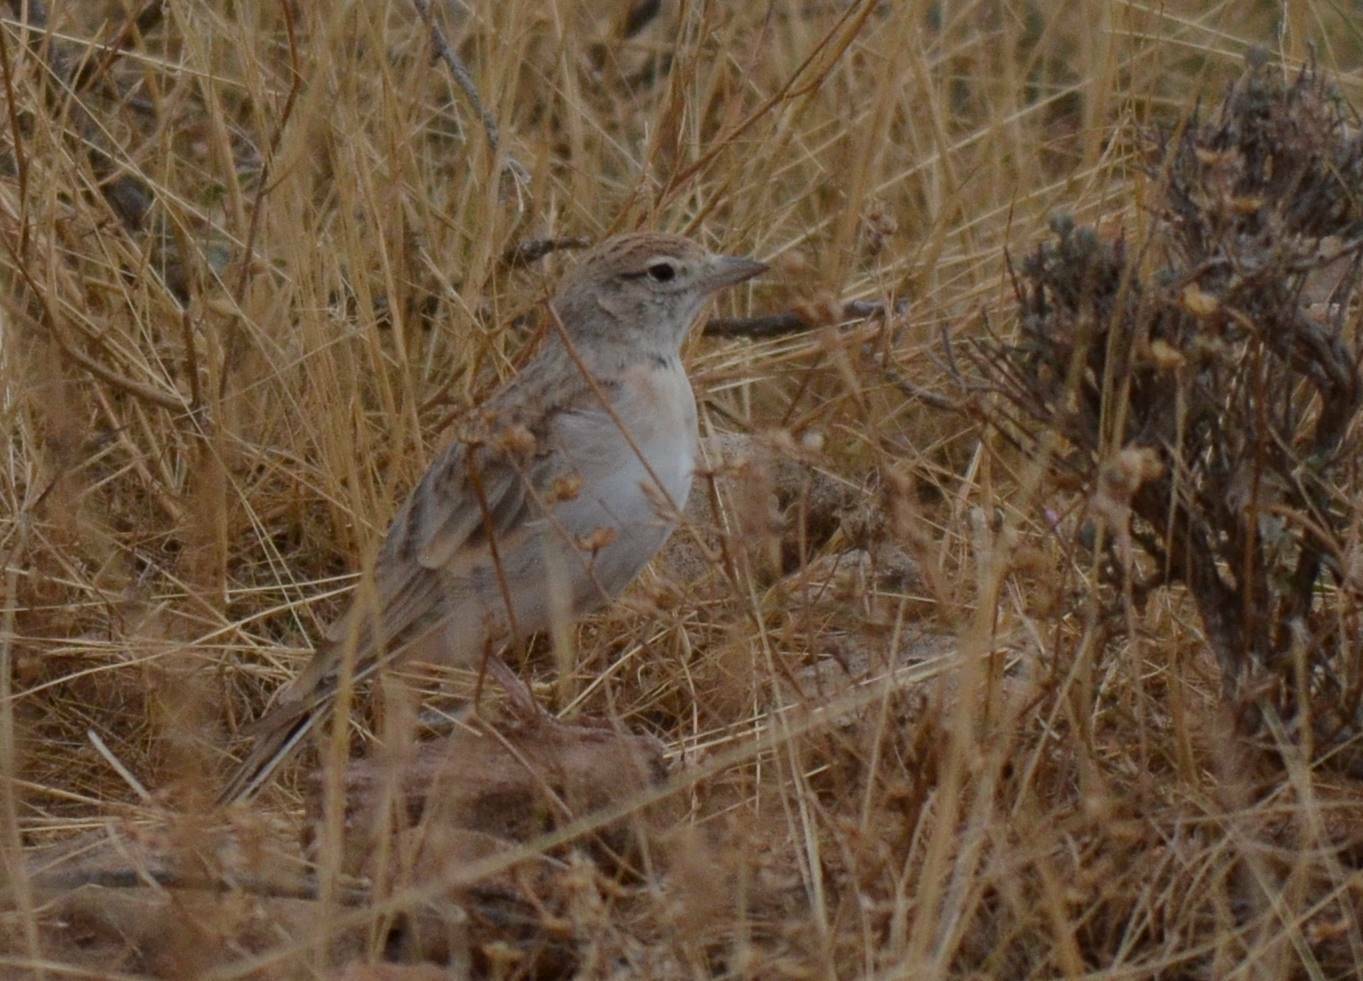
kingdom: Animalia
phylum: Chordata
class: Aves
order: Passeriformes
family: Alaudidae
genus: Calandrella
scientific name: Calandrella brachydactyla
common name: Greater short-toed lark
